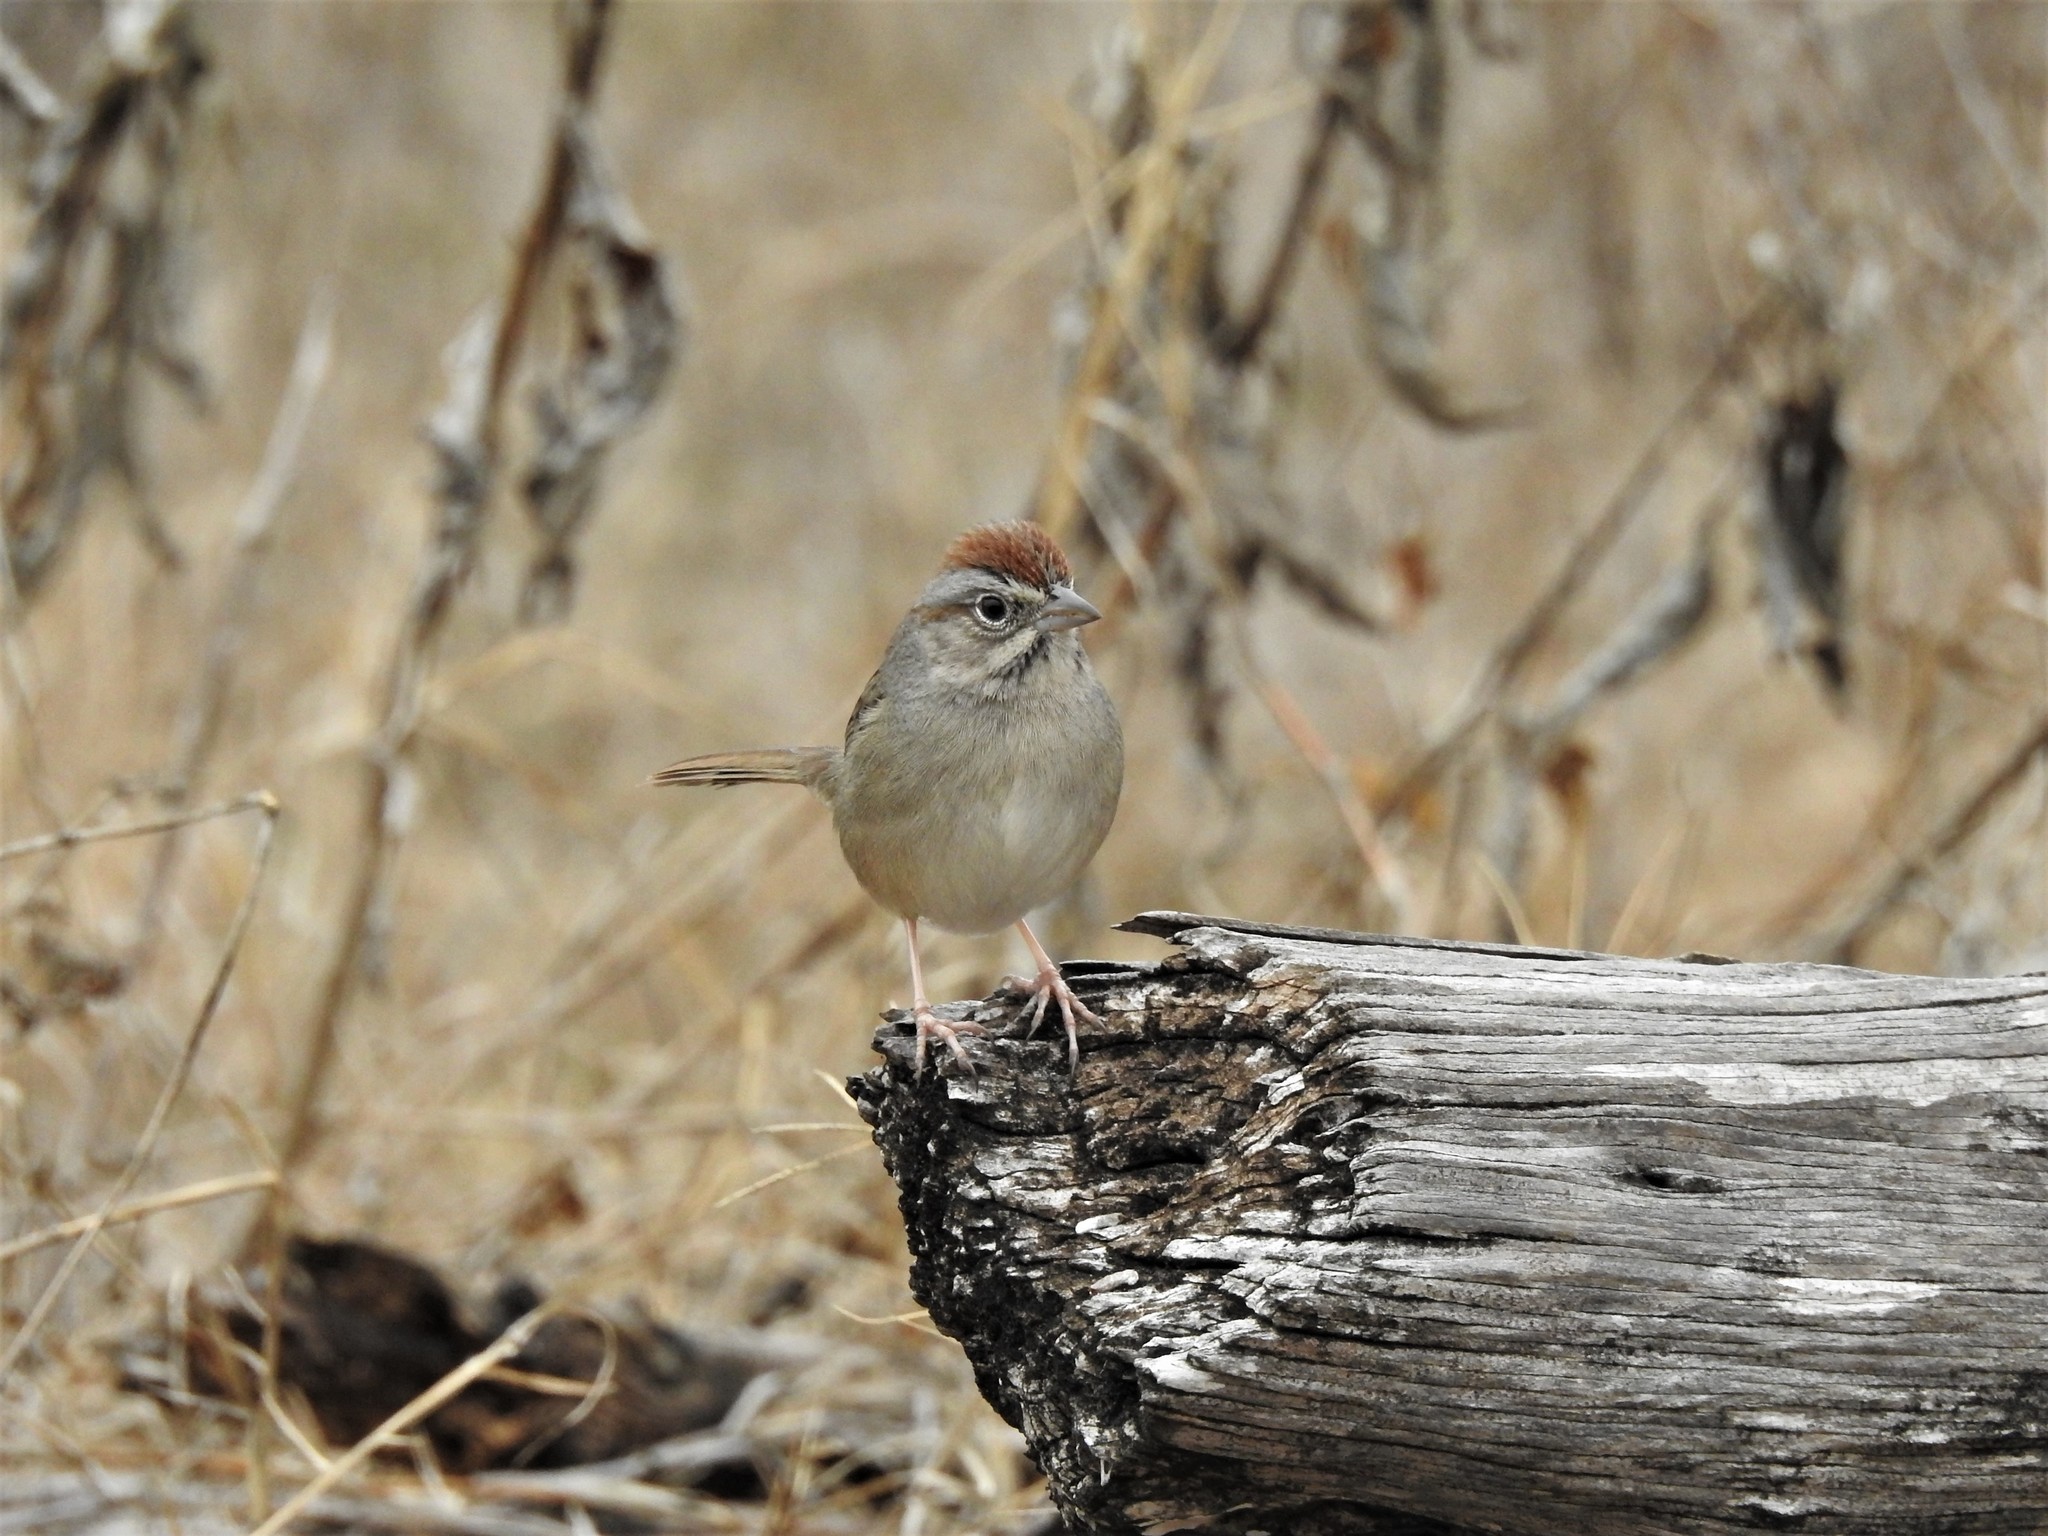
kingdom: Animalia
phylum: Chordata
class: Aves
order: Passeriformes
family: Passerellidae
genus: Aimophila
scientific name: Aimophila ruficeps
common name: Rufous-crowned sparrow
